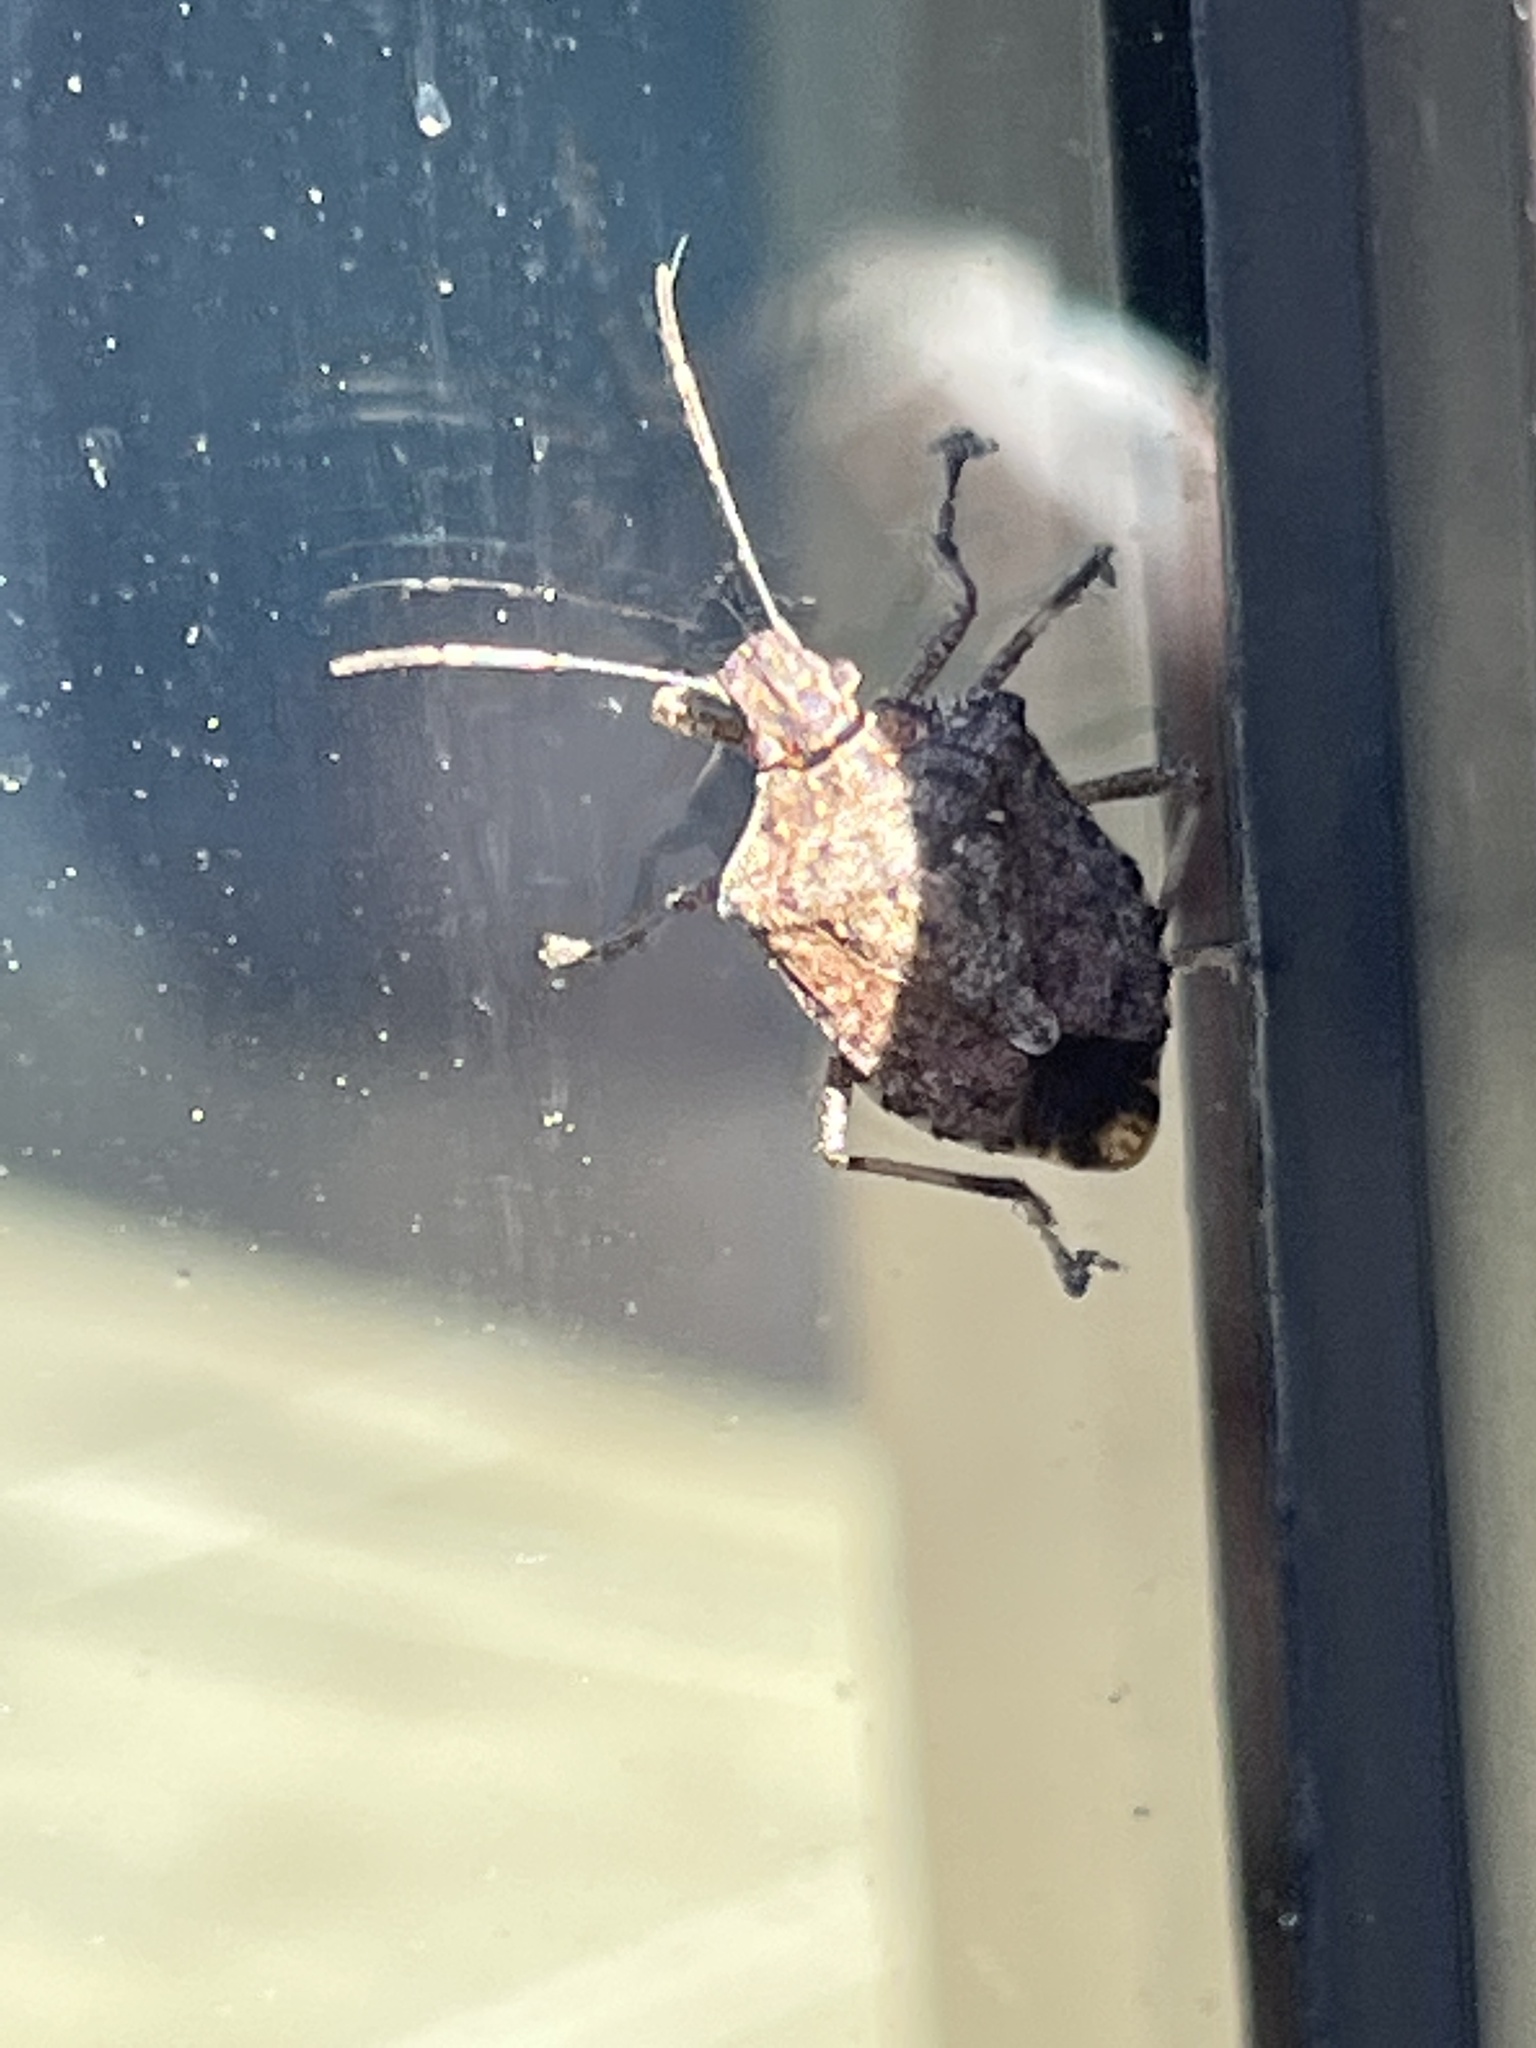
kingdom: Animalia
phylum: Arthropoda
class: Insecta
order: Hemiptera
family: Pentatomidae
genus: Halyomorpha
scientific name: Halyomorpha halys
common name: Brown marmorated stink bug
